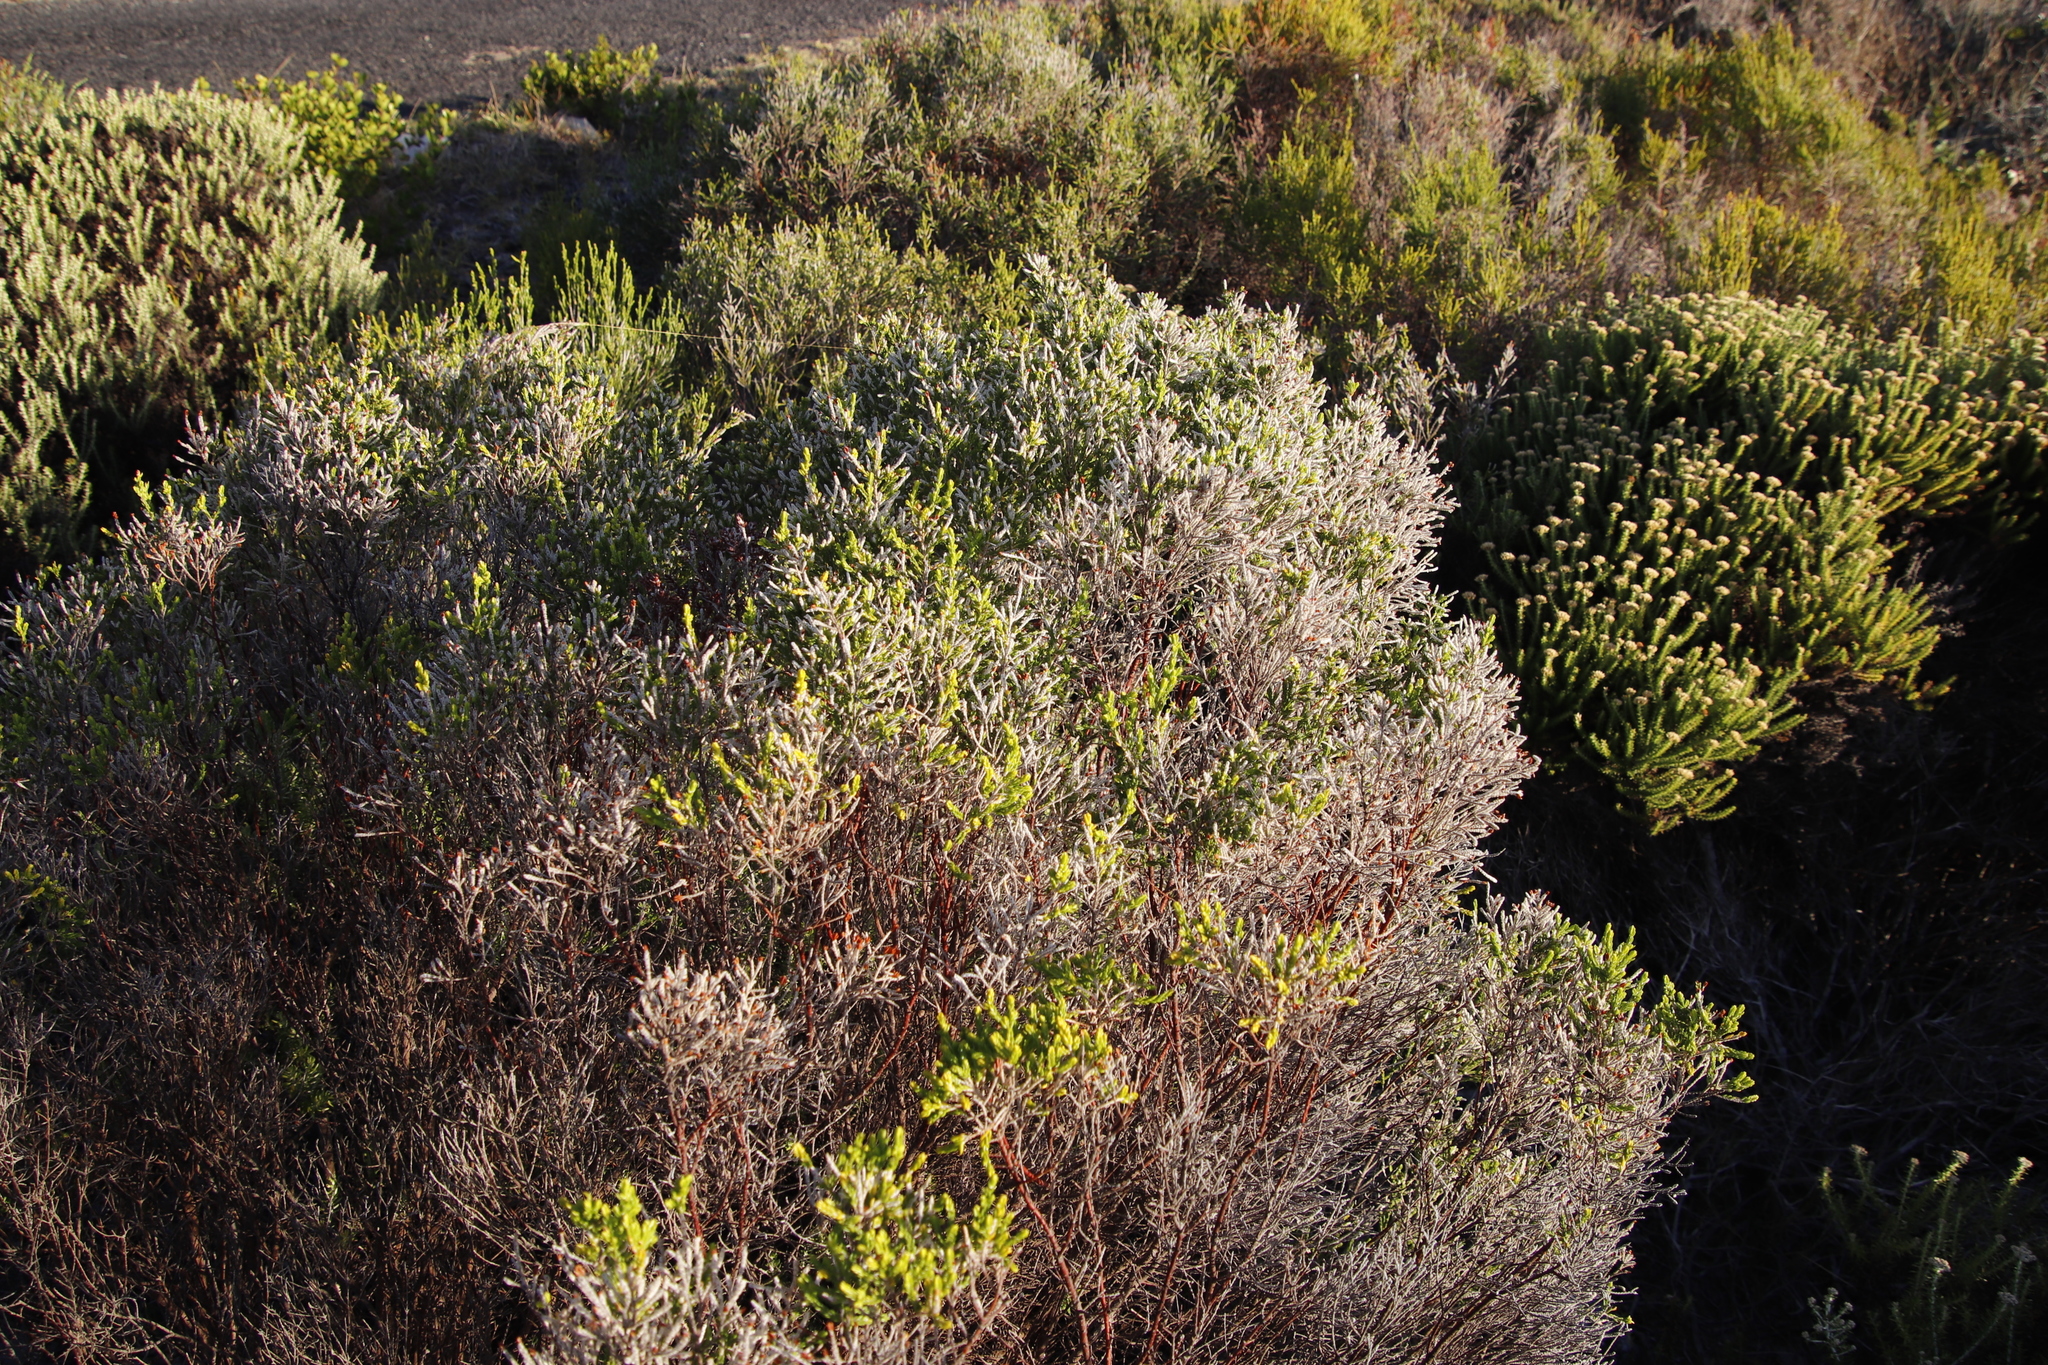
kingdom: Plantae
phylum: Tracheophyta
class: Magnoliopsida
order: Malvales
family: Thymelaeaceae
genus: Passerina
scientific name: Passerina corymbosa
